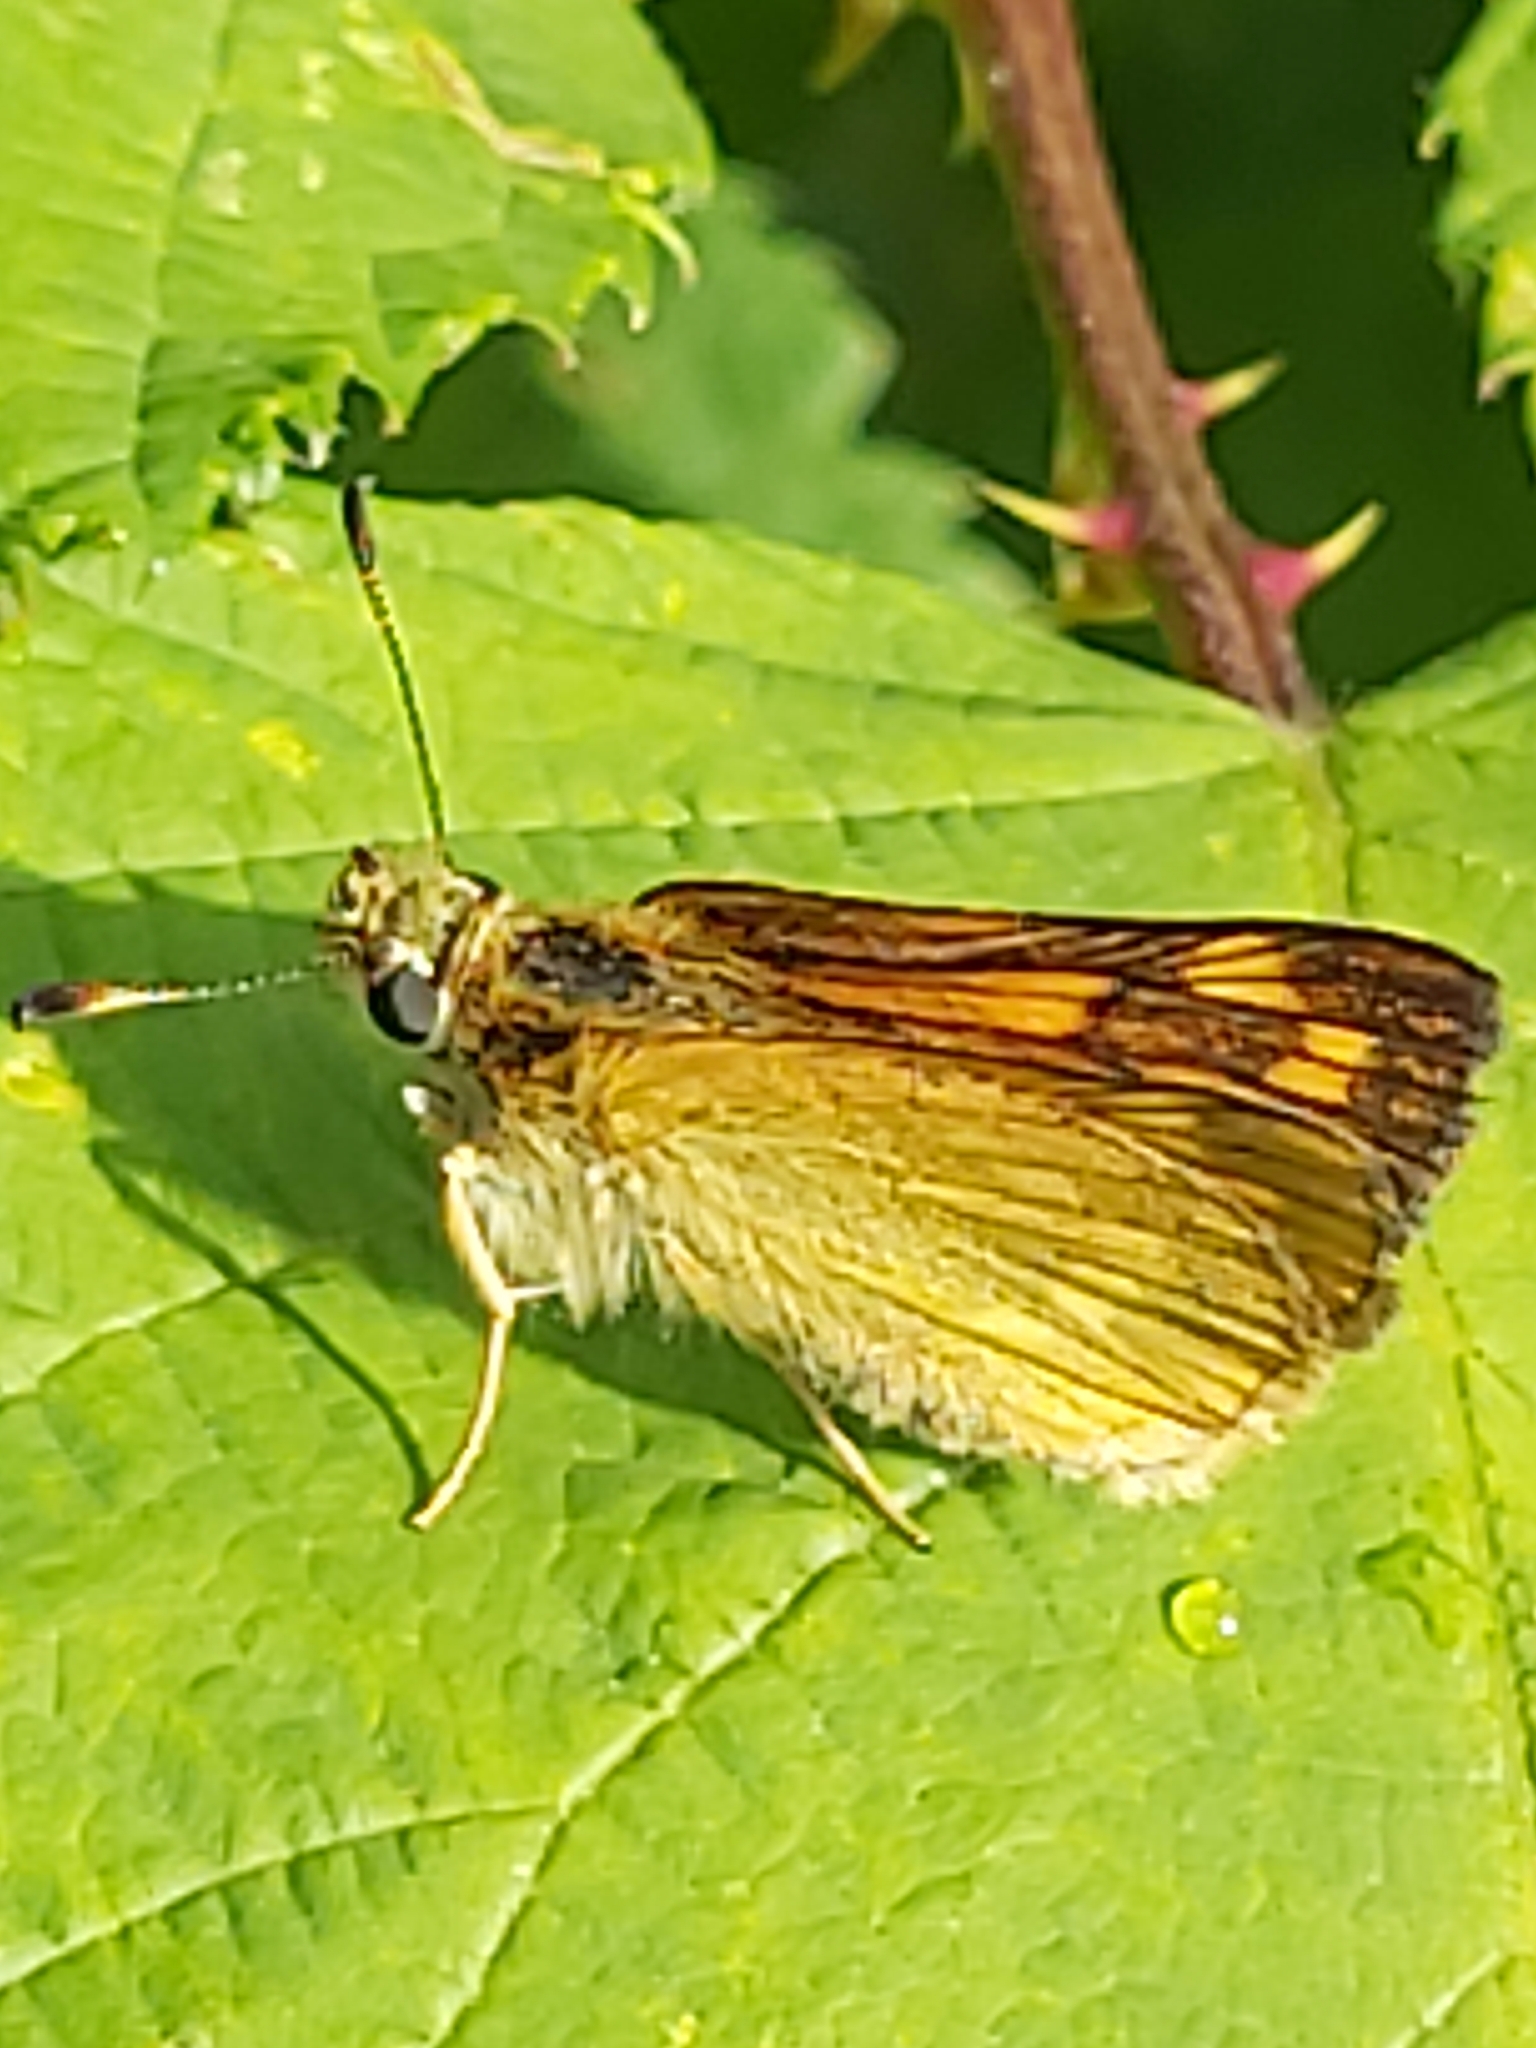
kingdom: Animalia
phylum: Arthropoda
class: Insecta
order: Lepidoptera
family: Hesperiidae
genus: Ochlodes
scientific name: Ochlodes venata
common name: Large skipper
